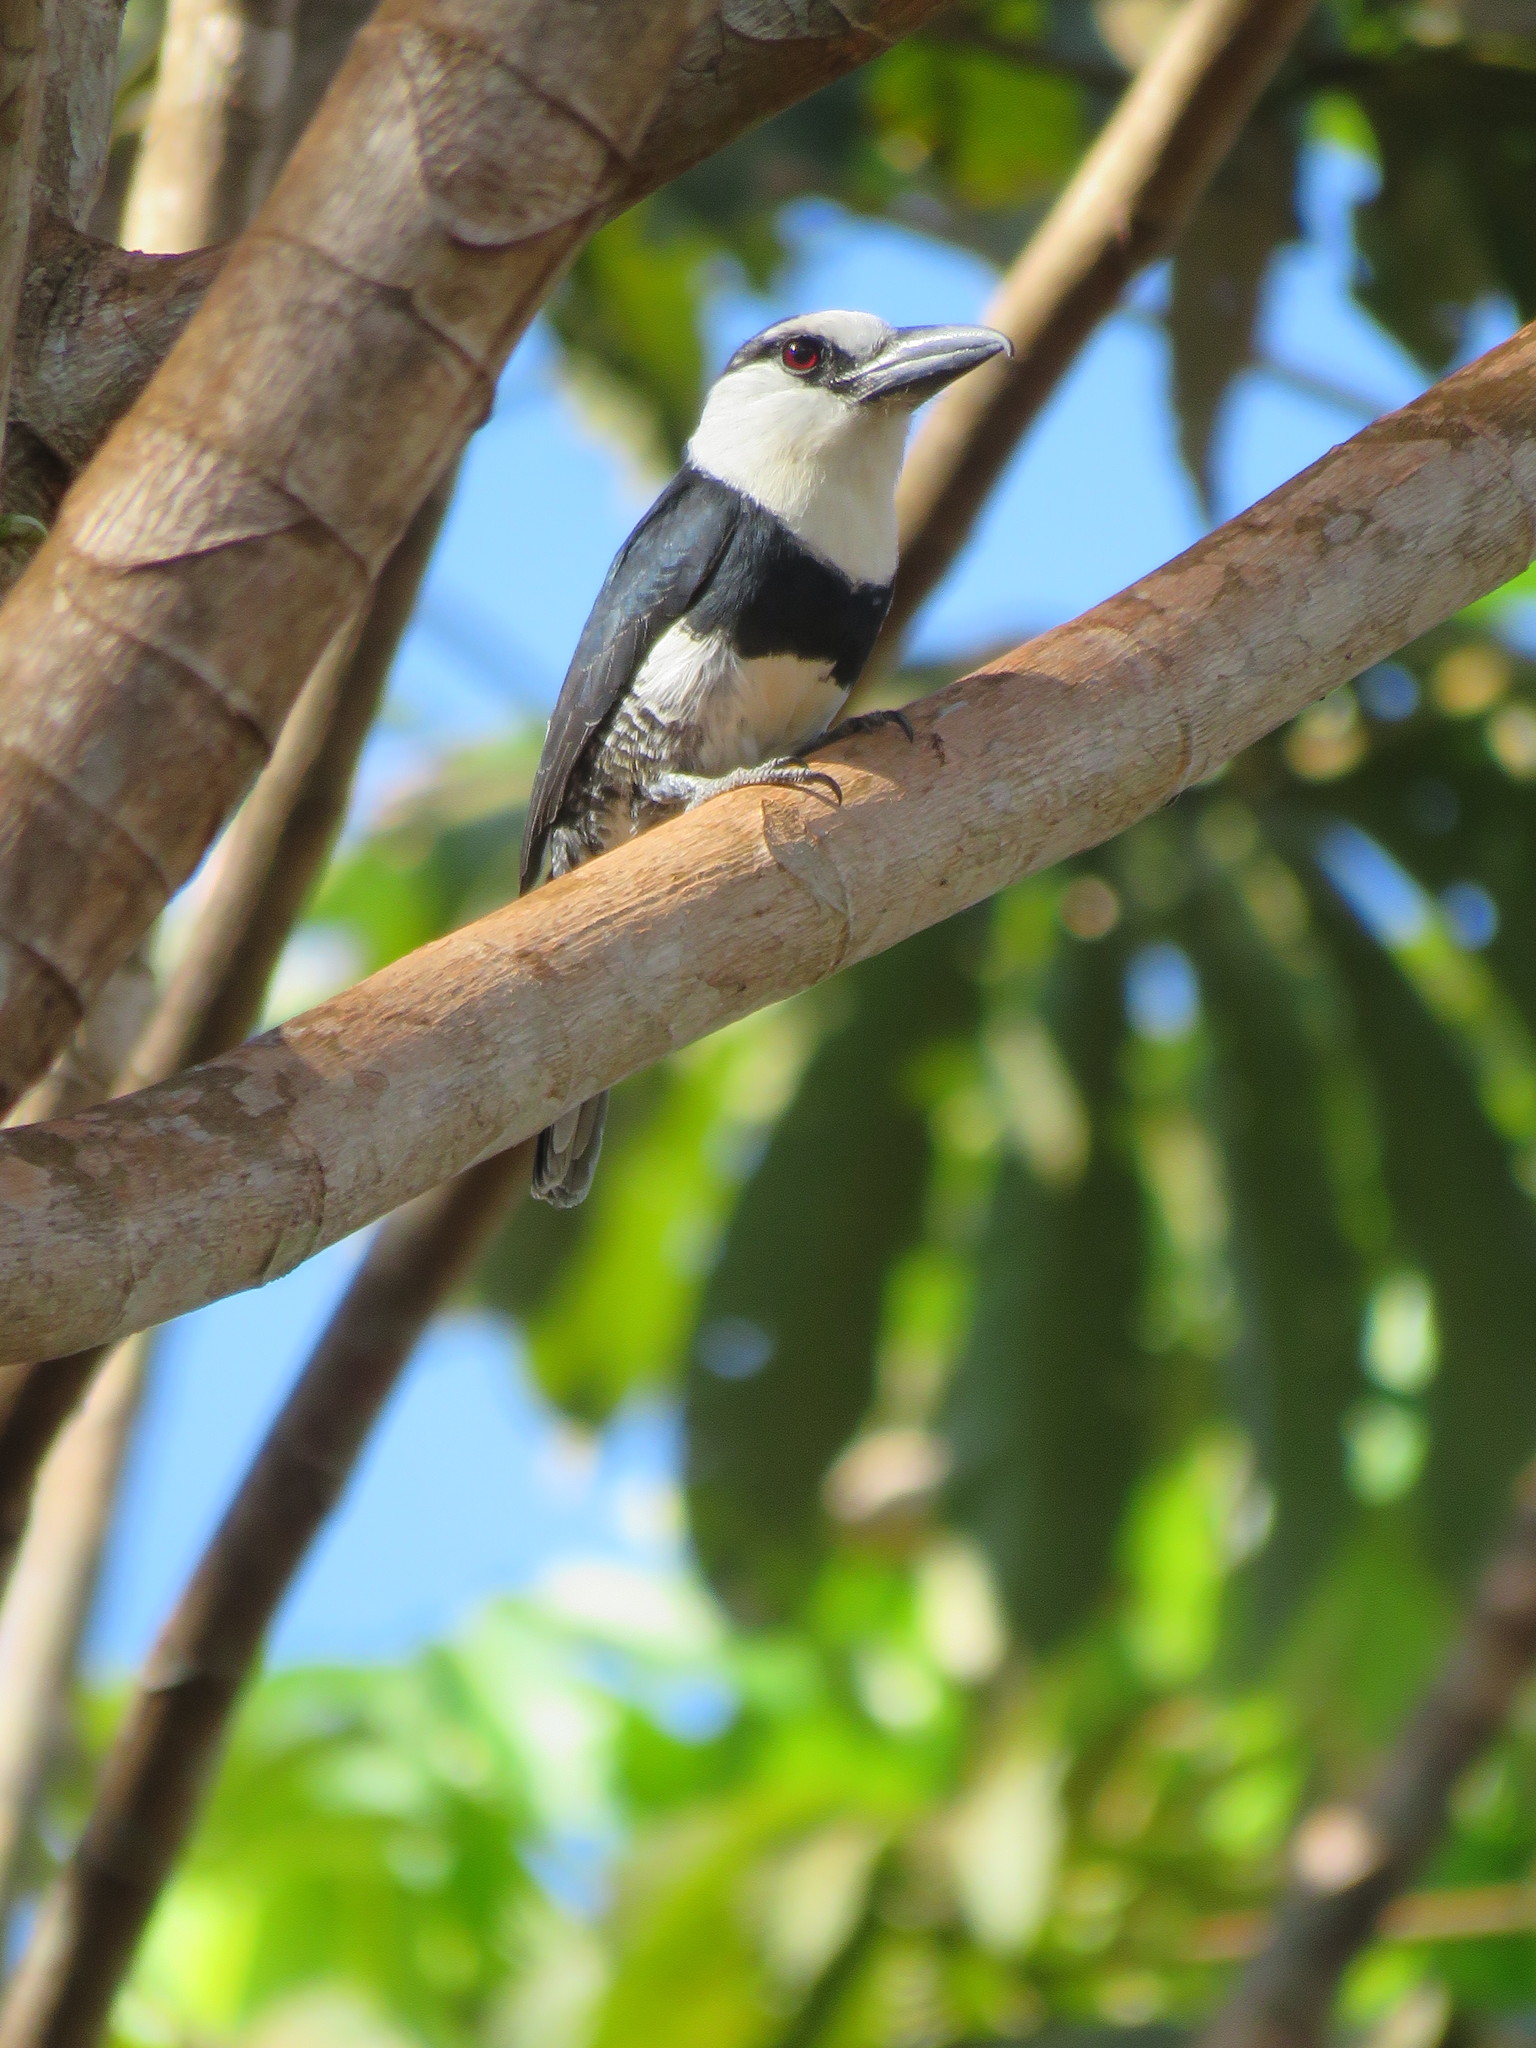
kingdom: Animalia
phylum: Chordata
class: Aves
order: Piciformes
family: Bucconidae
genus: Notharchus
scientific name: Notharchus hyperrhynchus
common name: White-necked puffbird
